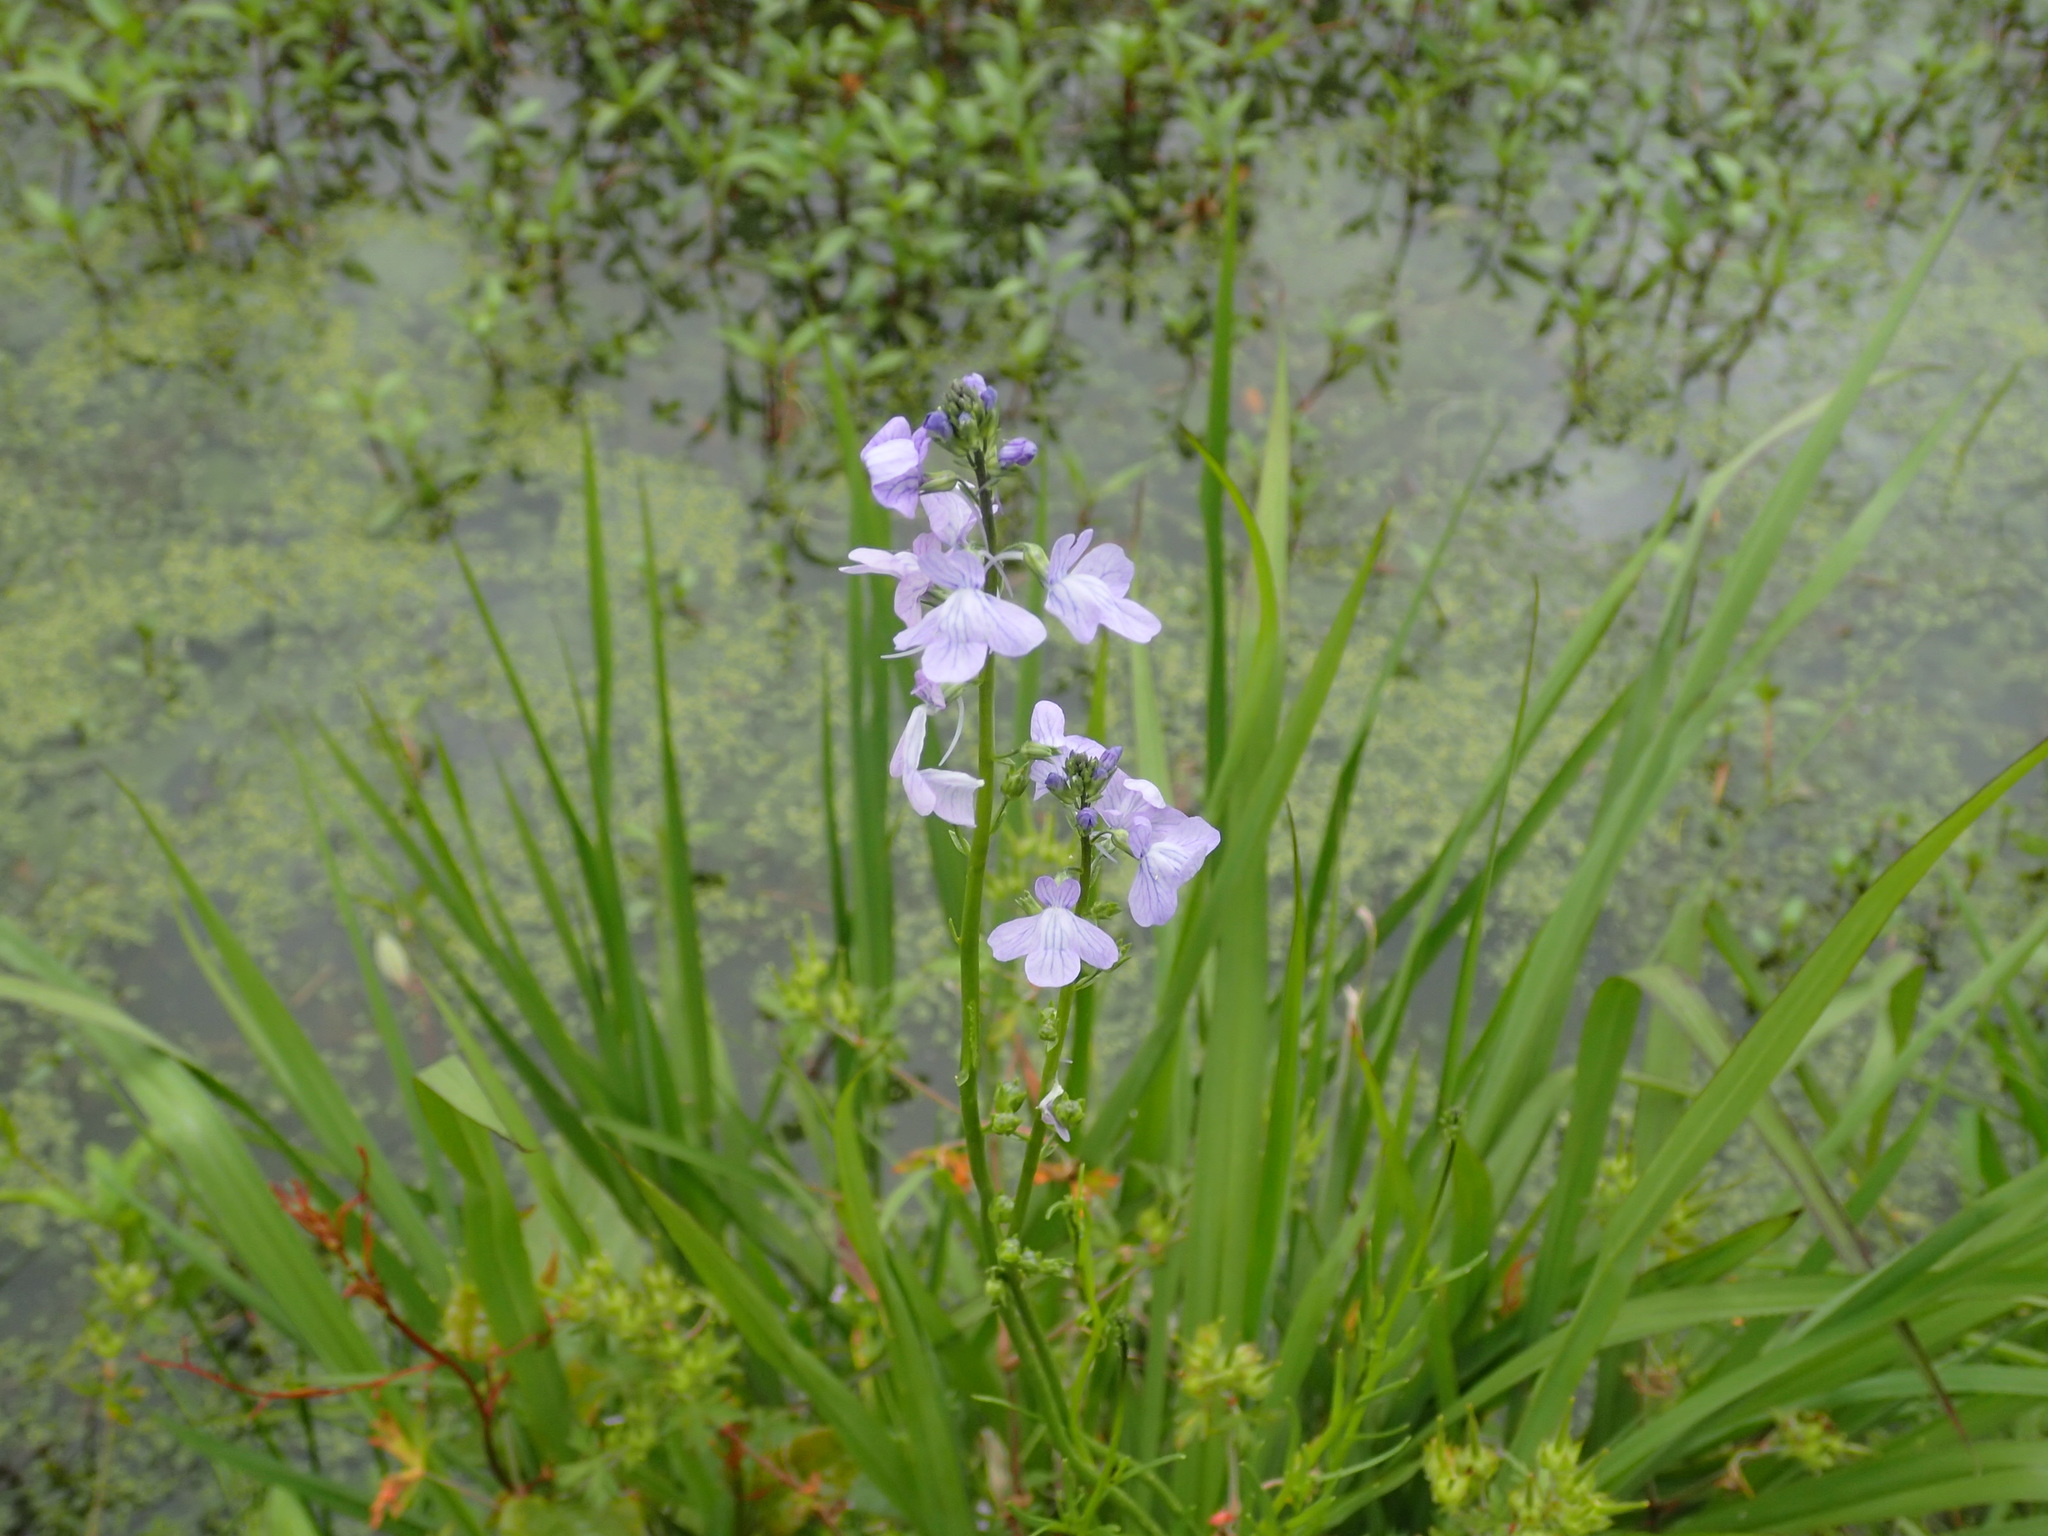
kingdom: Plantae
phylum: Tracheophyta
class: Magnoliopsida
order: Lamiales
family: Plantaginaceae
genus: Nuttallanthus
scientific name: Nuttallanthus canadensis
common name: Blue toadflax
